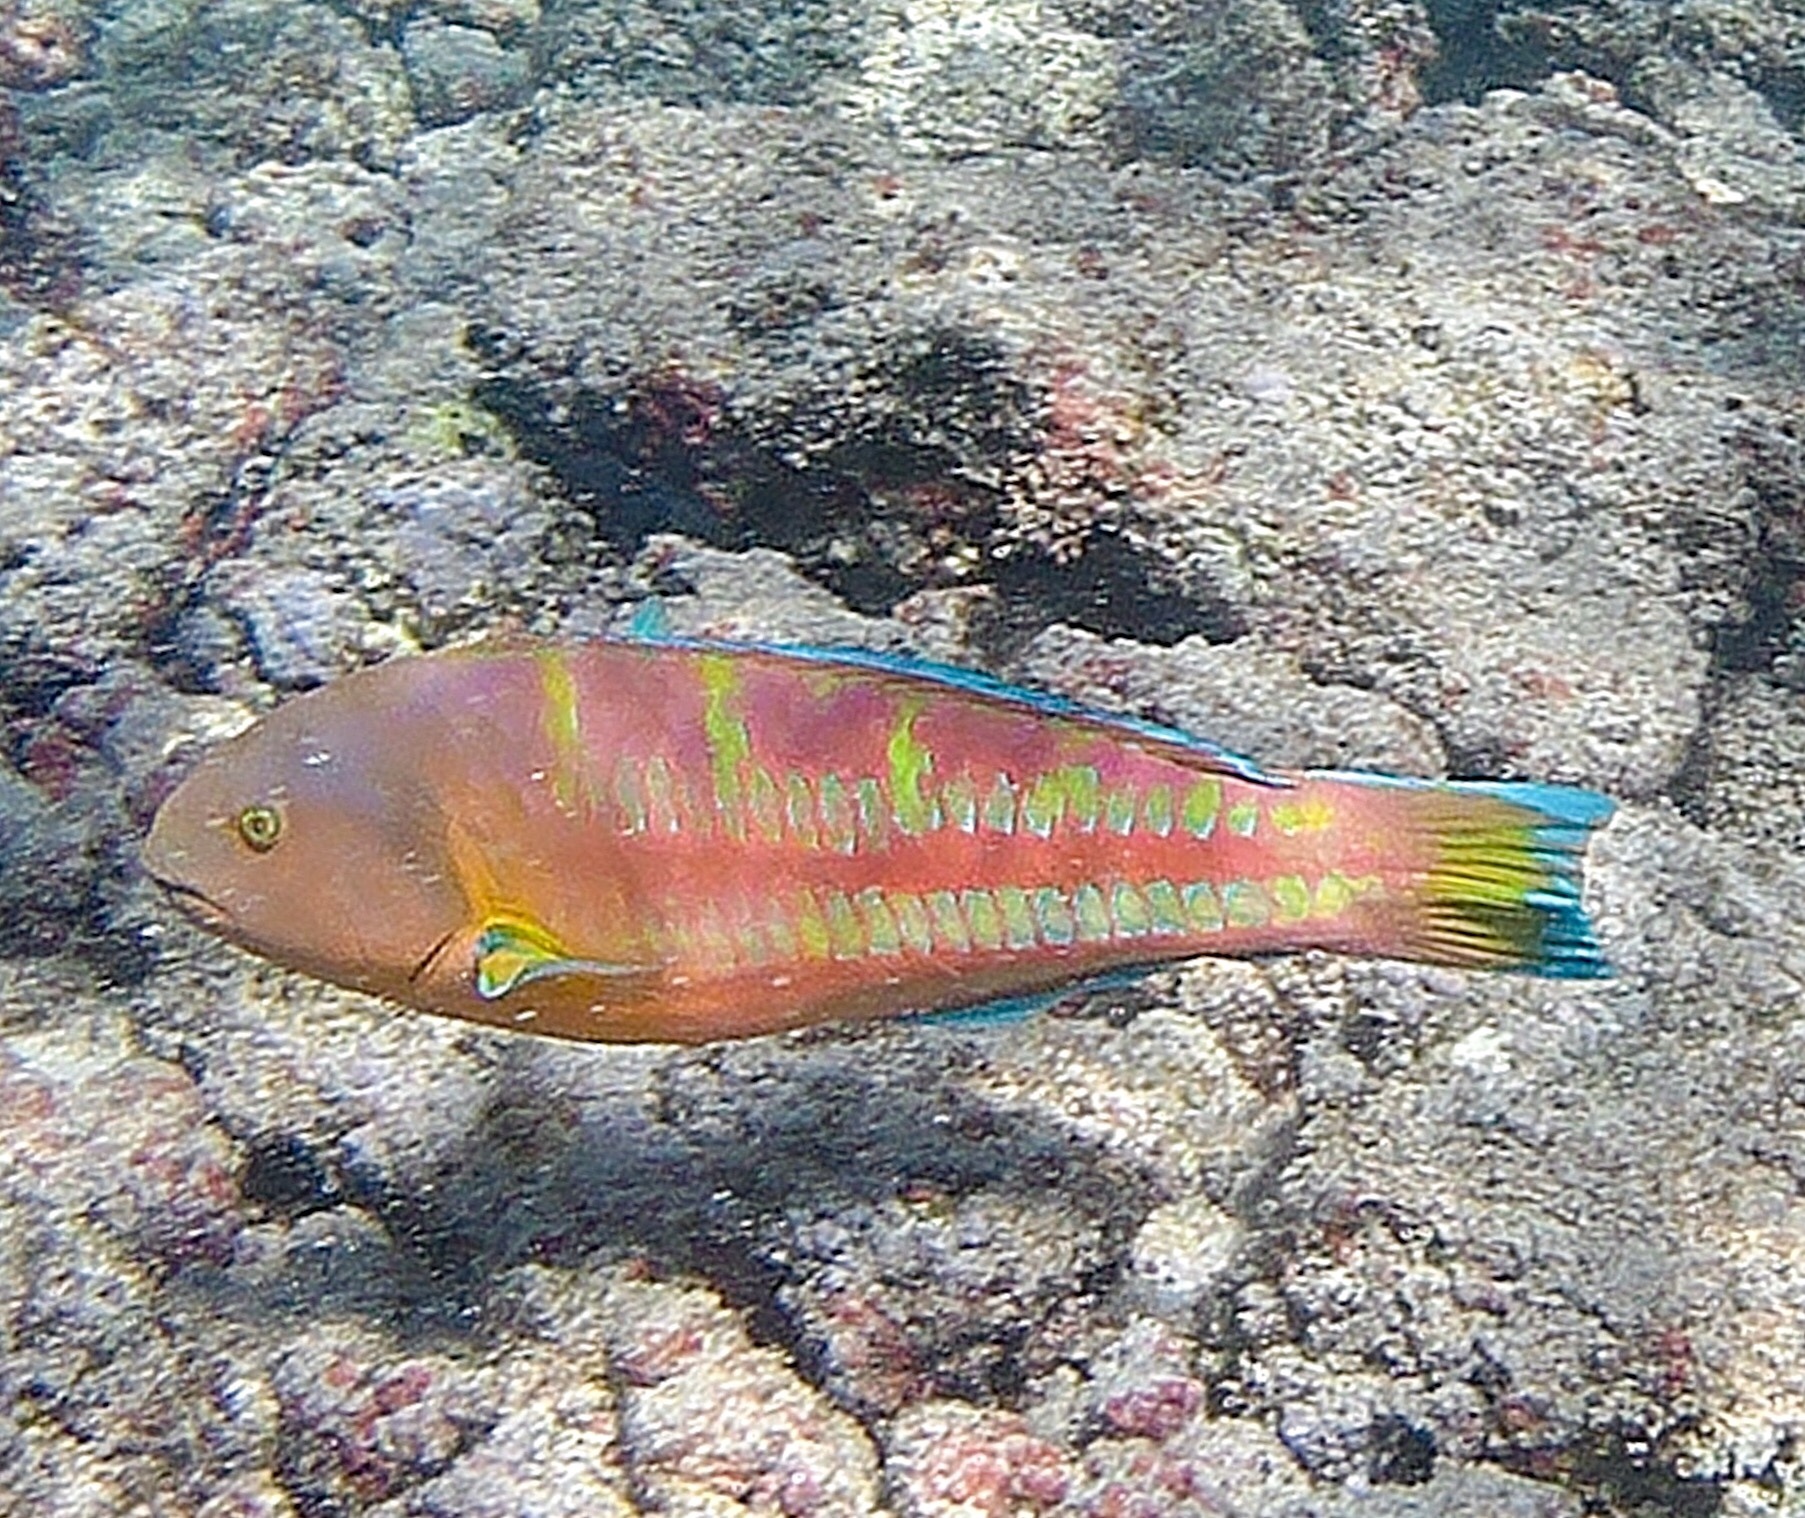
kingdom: Animalia
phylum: Chordata
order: Perciformes
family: Labridae
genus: Thalassoma
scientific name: Thalassoma trilobatum
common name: Christmas wrasse
